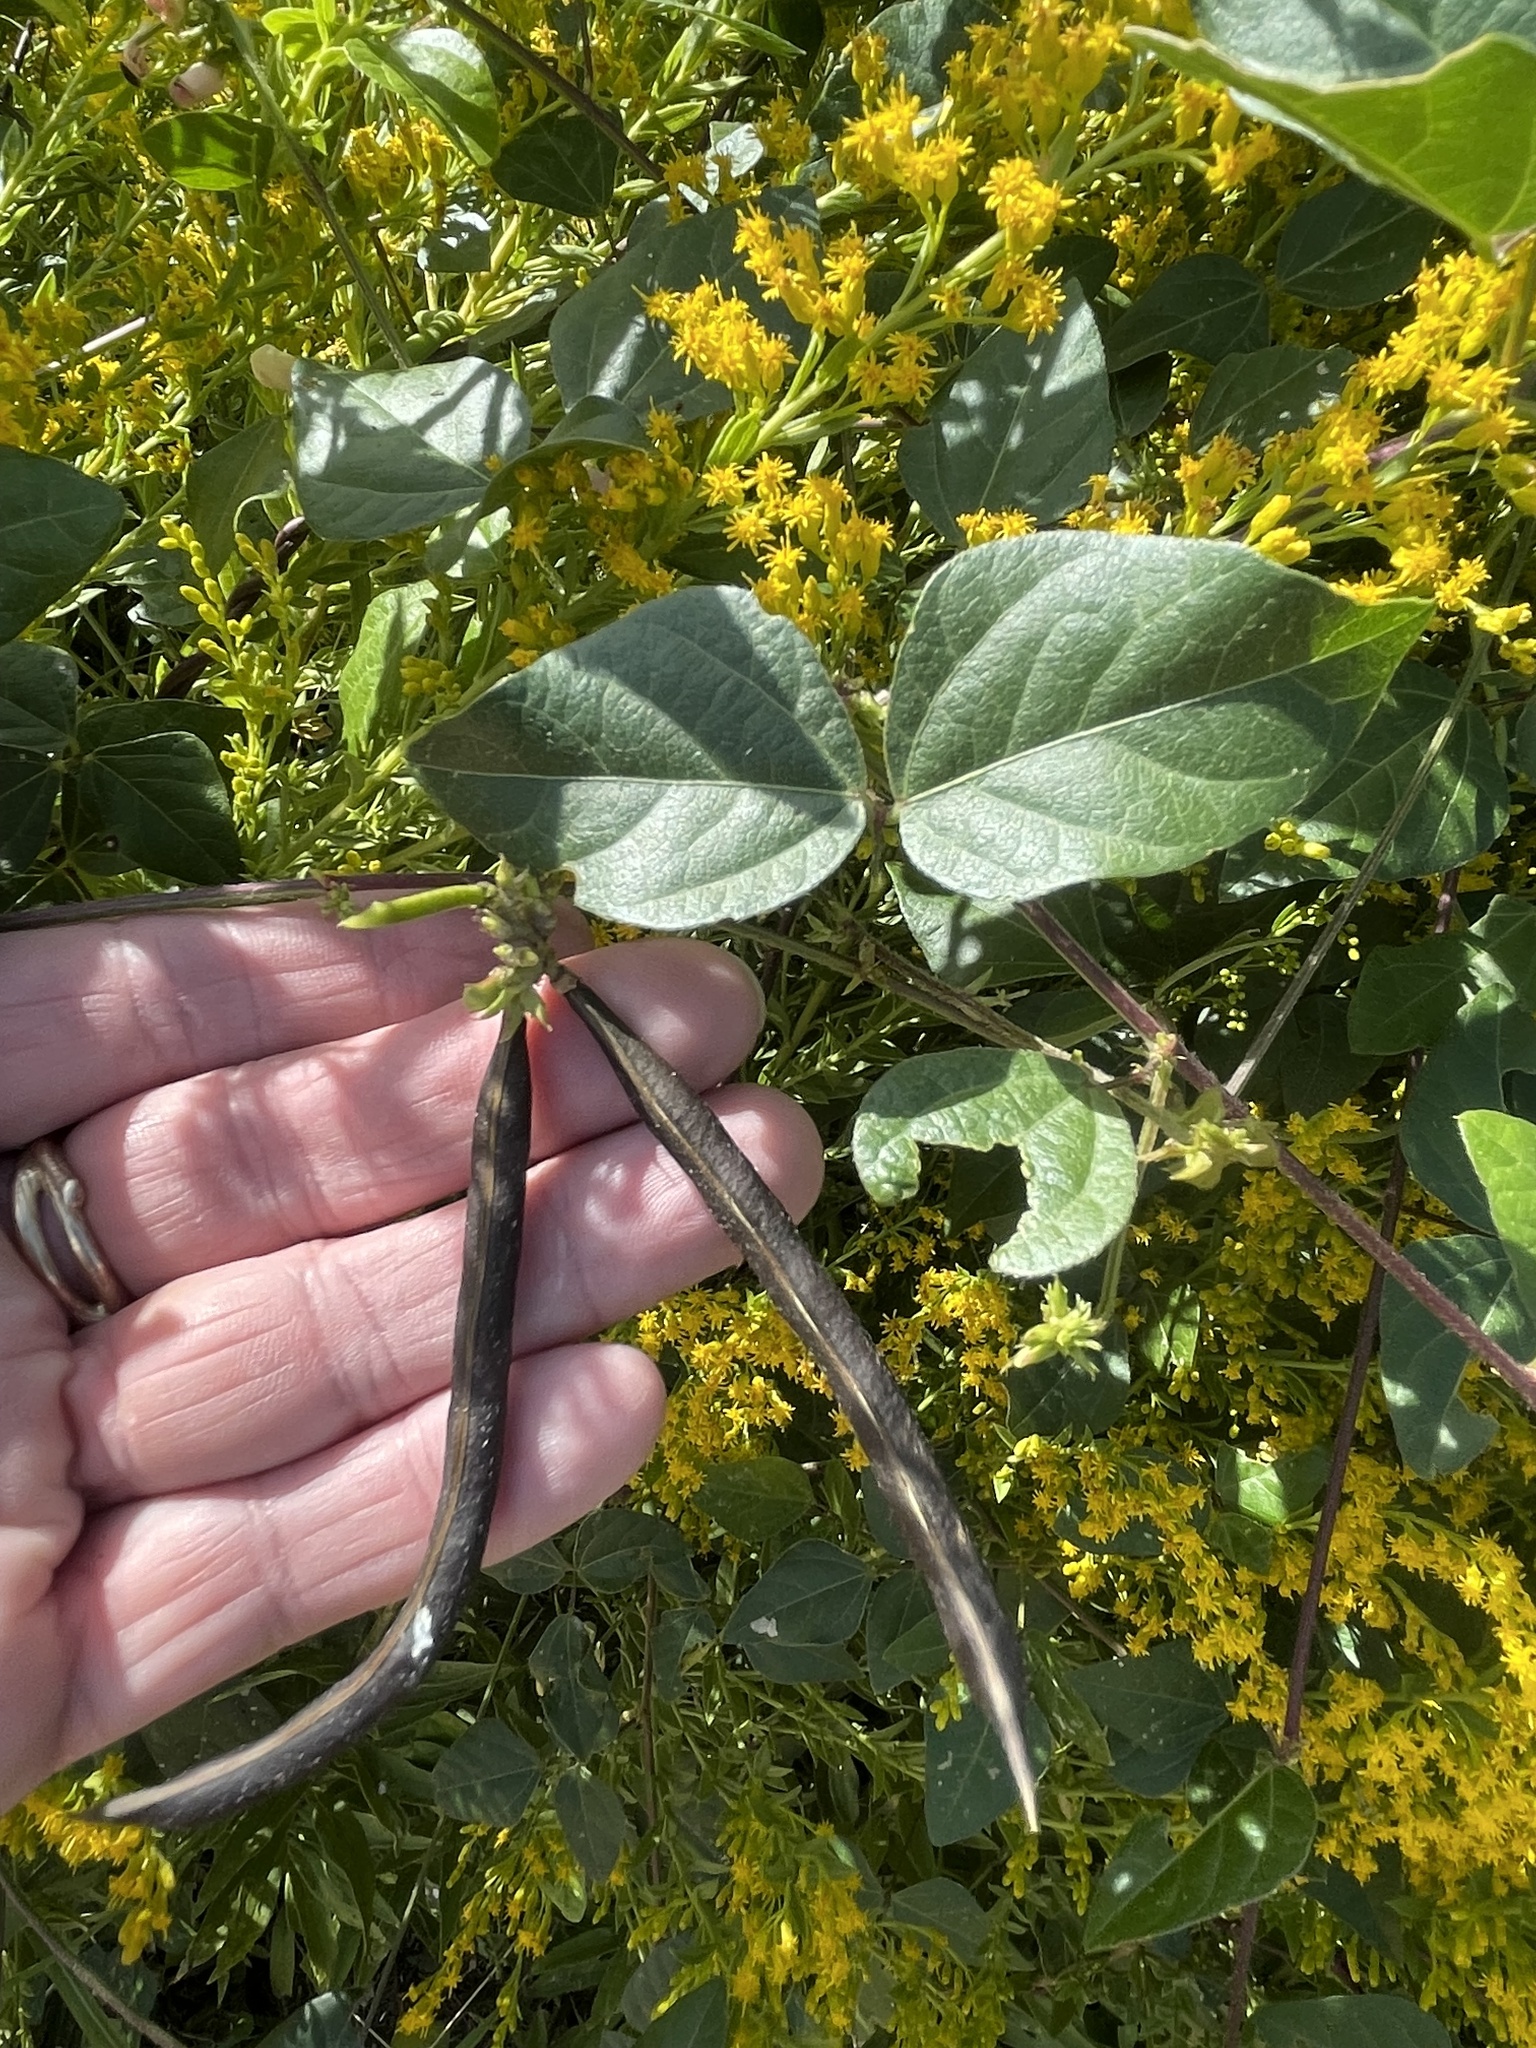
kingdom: Plantae
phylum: Tracheophyta
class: Magnoliopsida
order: Fabales
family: Fabaceae
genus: Strophostyles
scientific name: Strophostyles helvola
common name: Trailing wild bean
